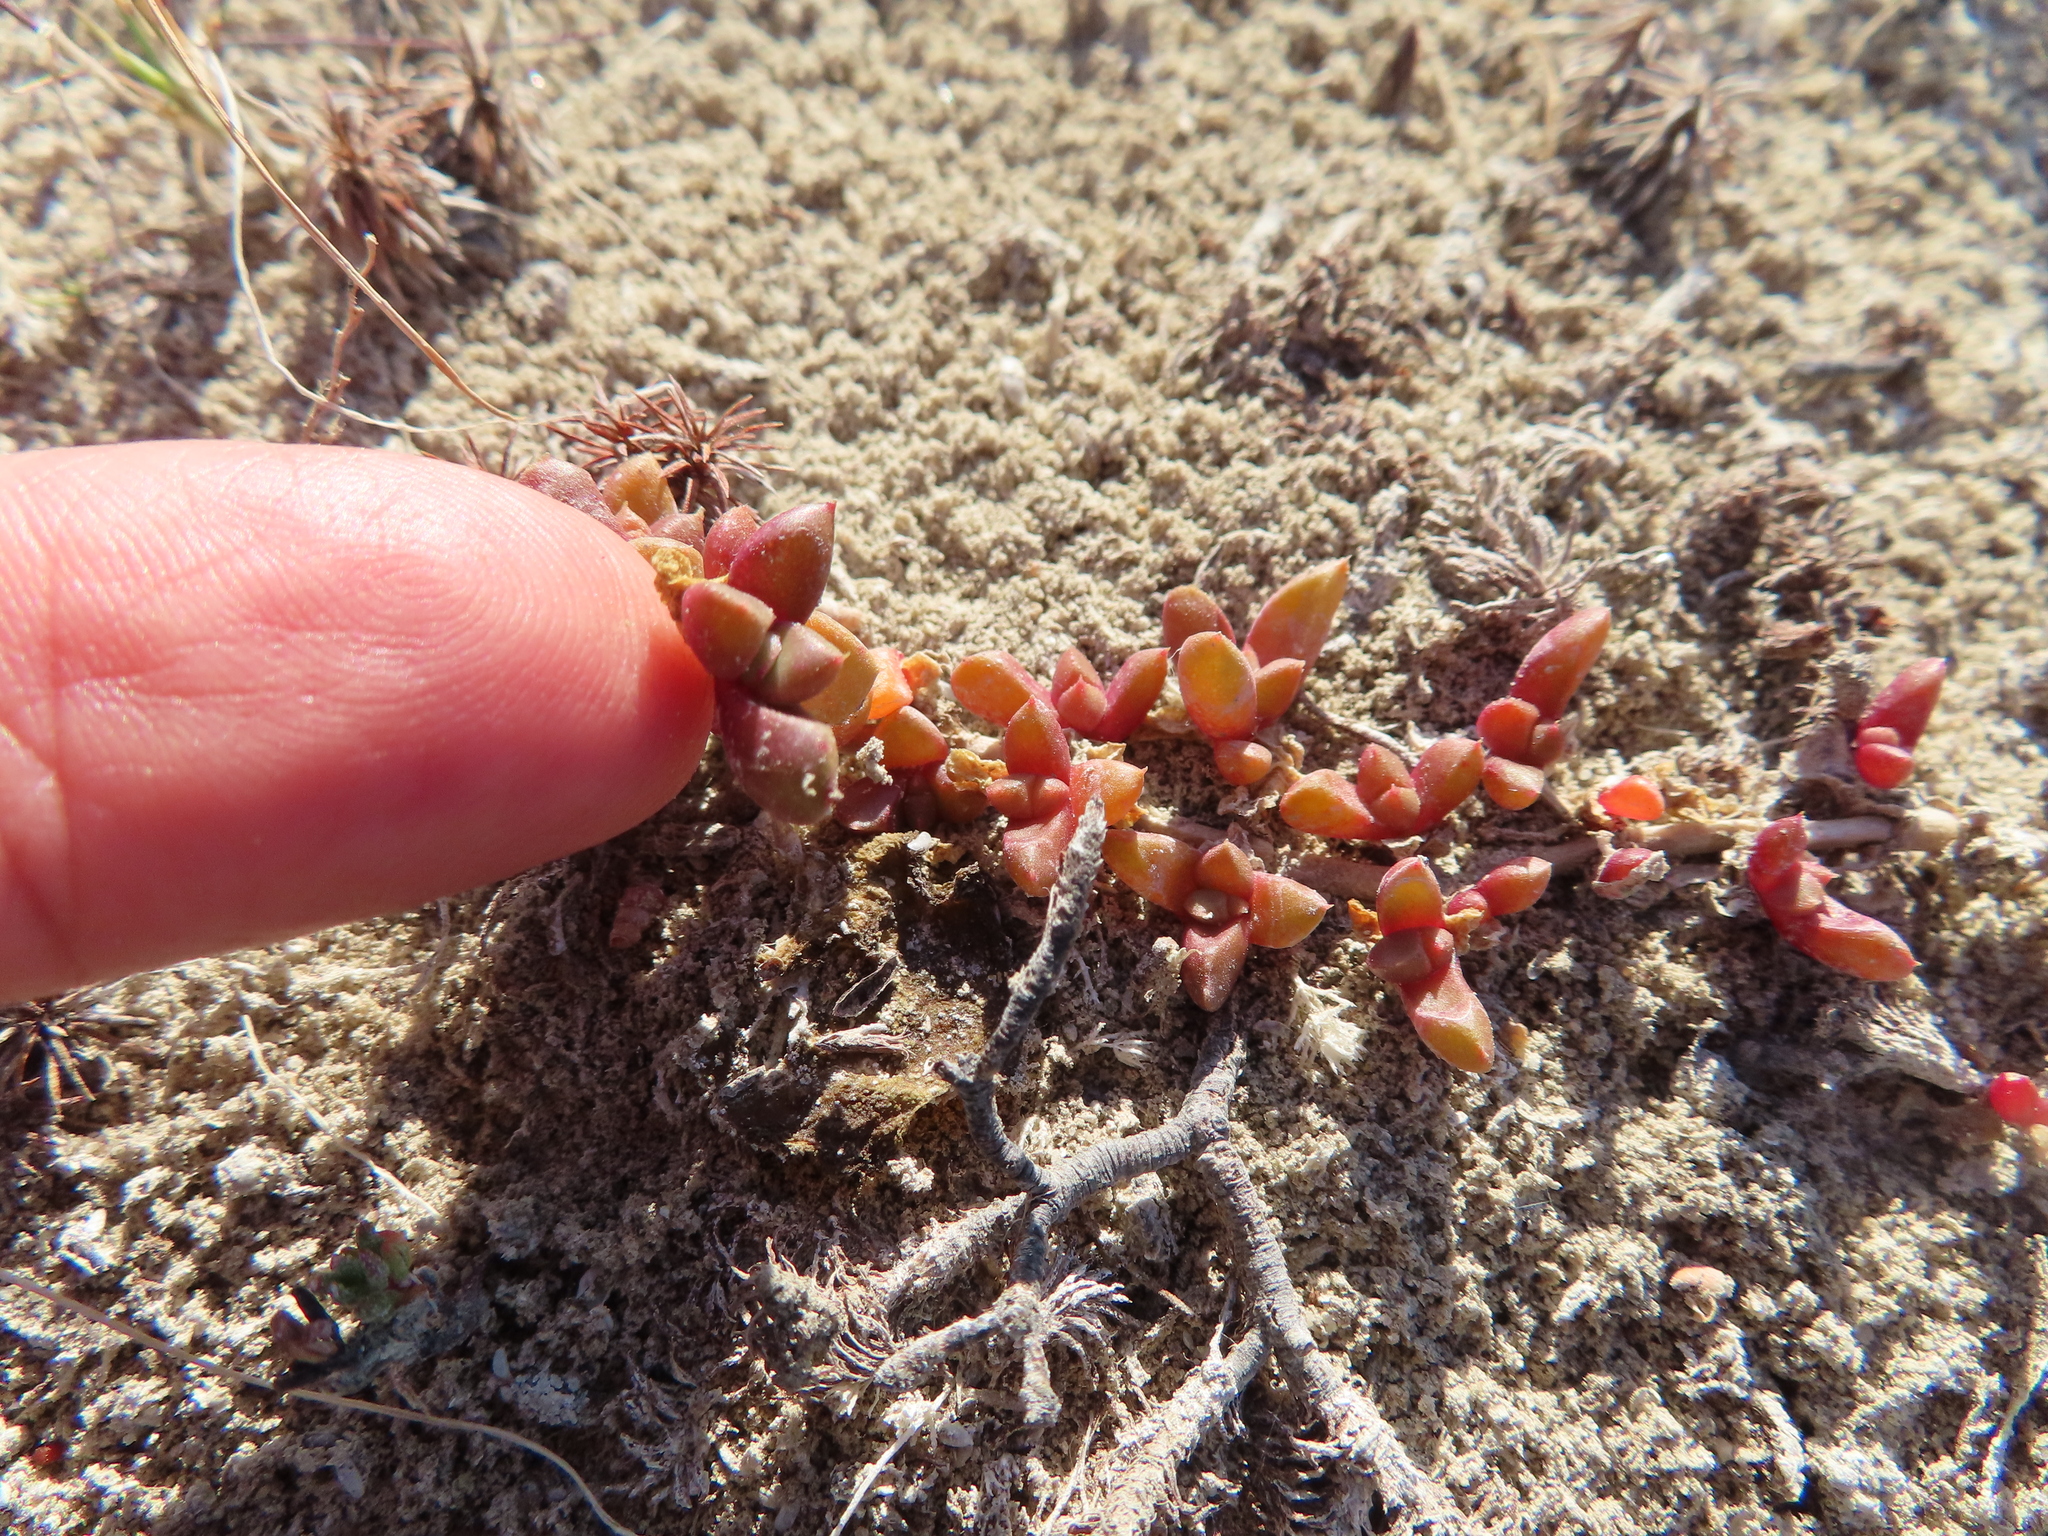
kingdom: Plantae
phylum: Tracheophyta
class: Magnoliopsida
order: Caryophyllales
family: Aizoaceae
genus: Disphyma
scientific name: Disphyma dunsdonii
